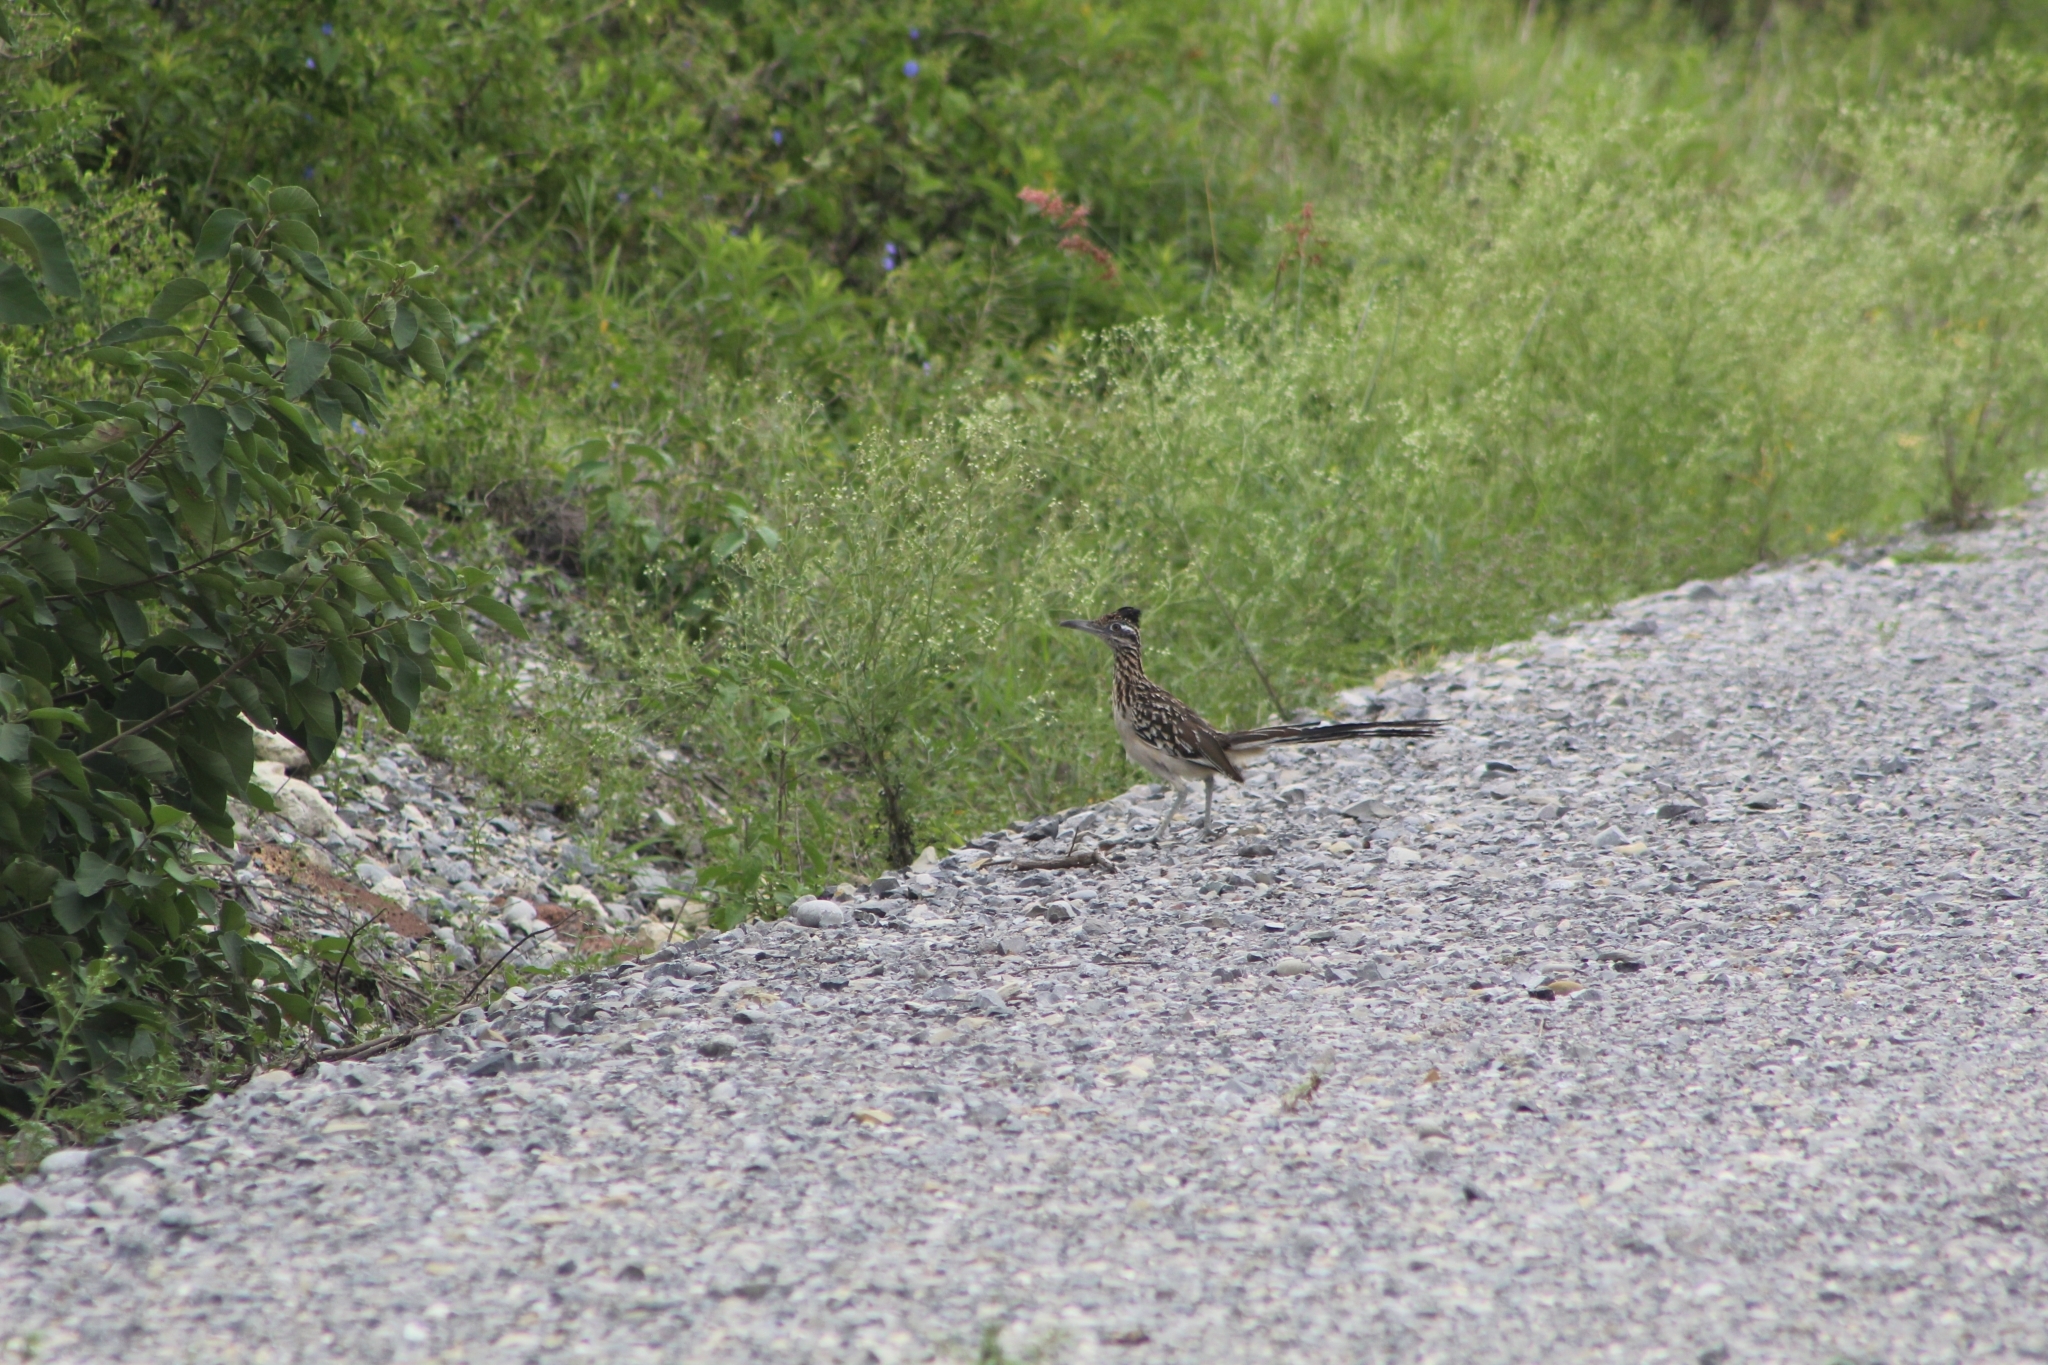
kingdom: Animalia
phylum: Chordata
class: Aves
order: Cuculiformes
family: Cuculidae
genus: Geococcyx
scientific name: Geococcyx californianus
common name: Greater roadrunner
